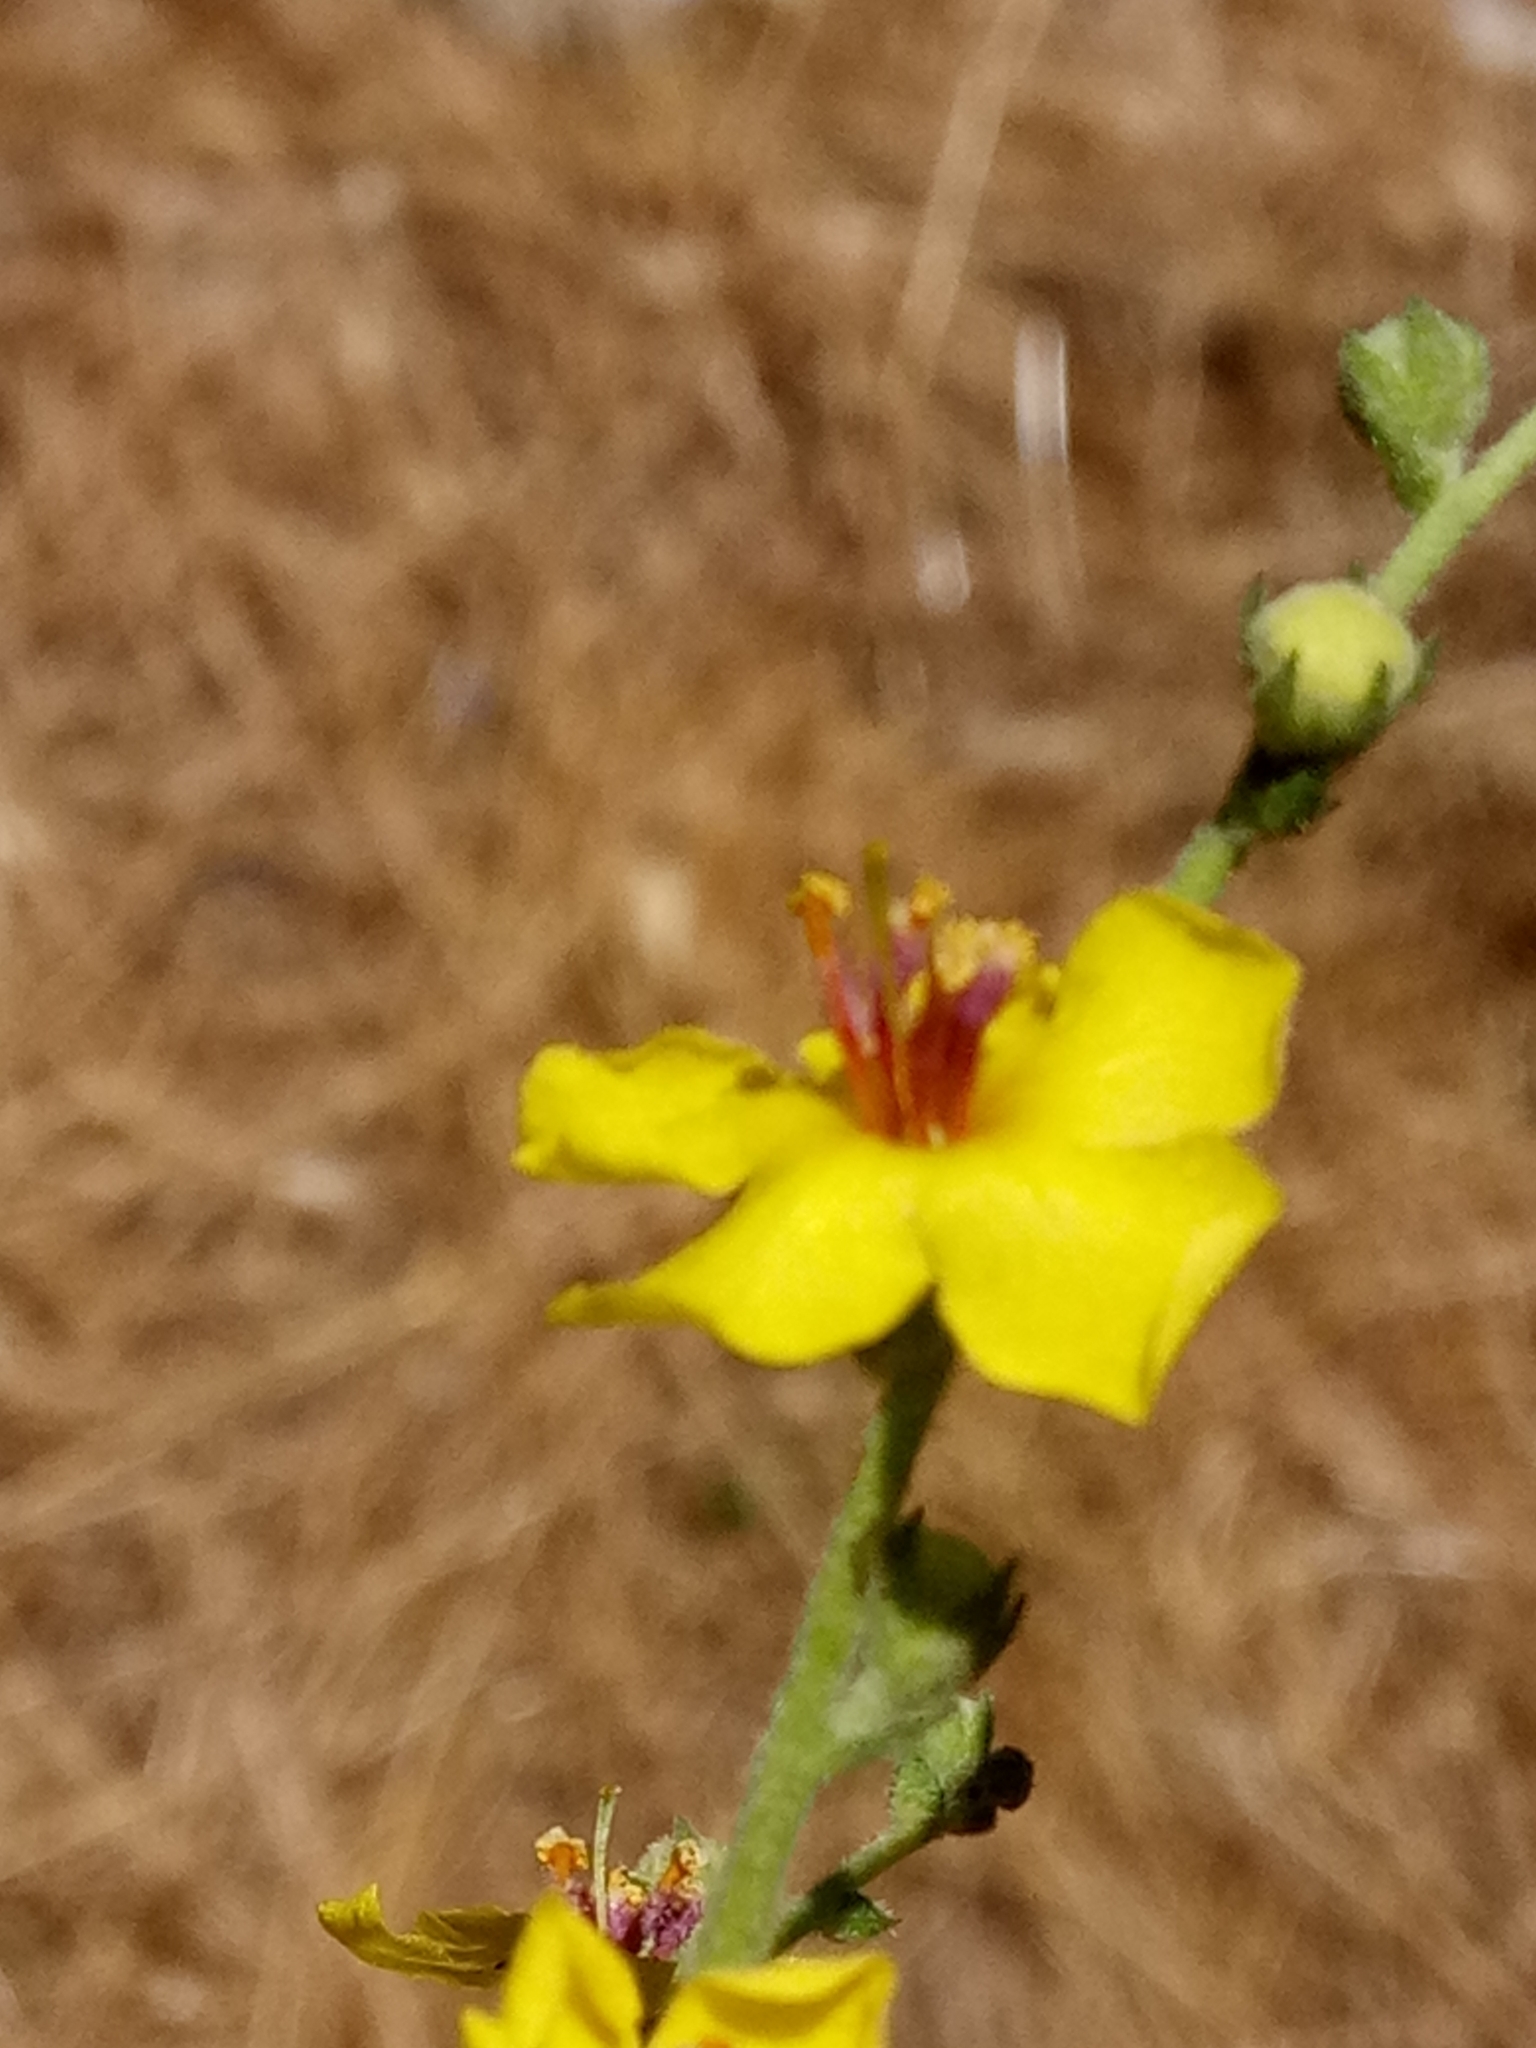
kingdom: Plantae
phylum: Tracheophyta
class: Magnoliopsida
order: Lamiales
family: Scrophulariaceae
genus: Verbascum
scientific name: Verbascum sinuatum
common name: Wavyleaf mullein
